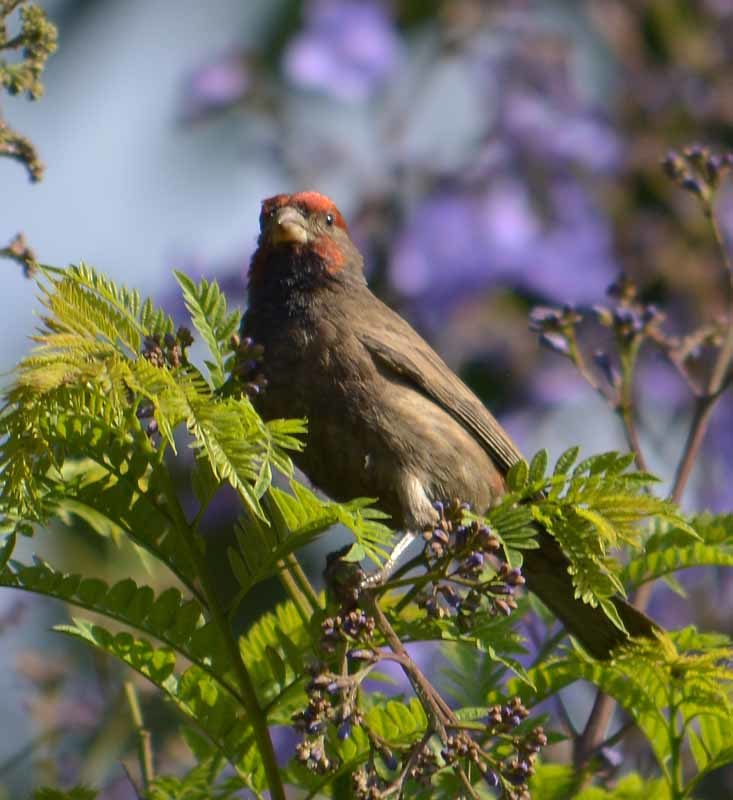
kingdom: Animalia
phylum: Chordata
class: Aves
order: Passeriformes
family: Fringillidae
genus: Haemorhous
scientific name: Haemorhous mexicanus
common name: House finch
